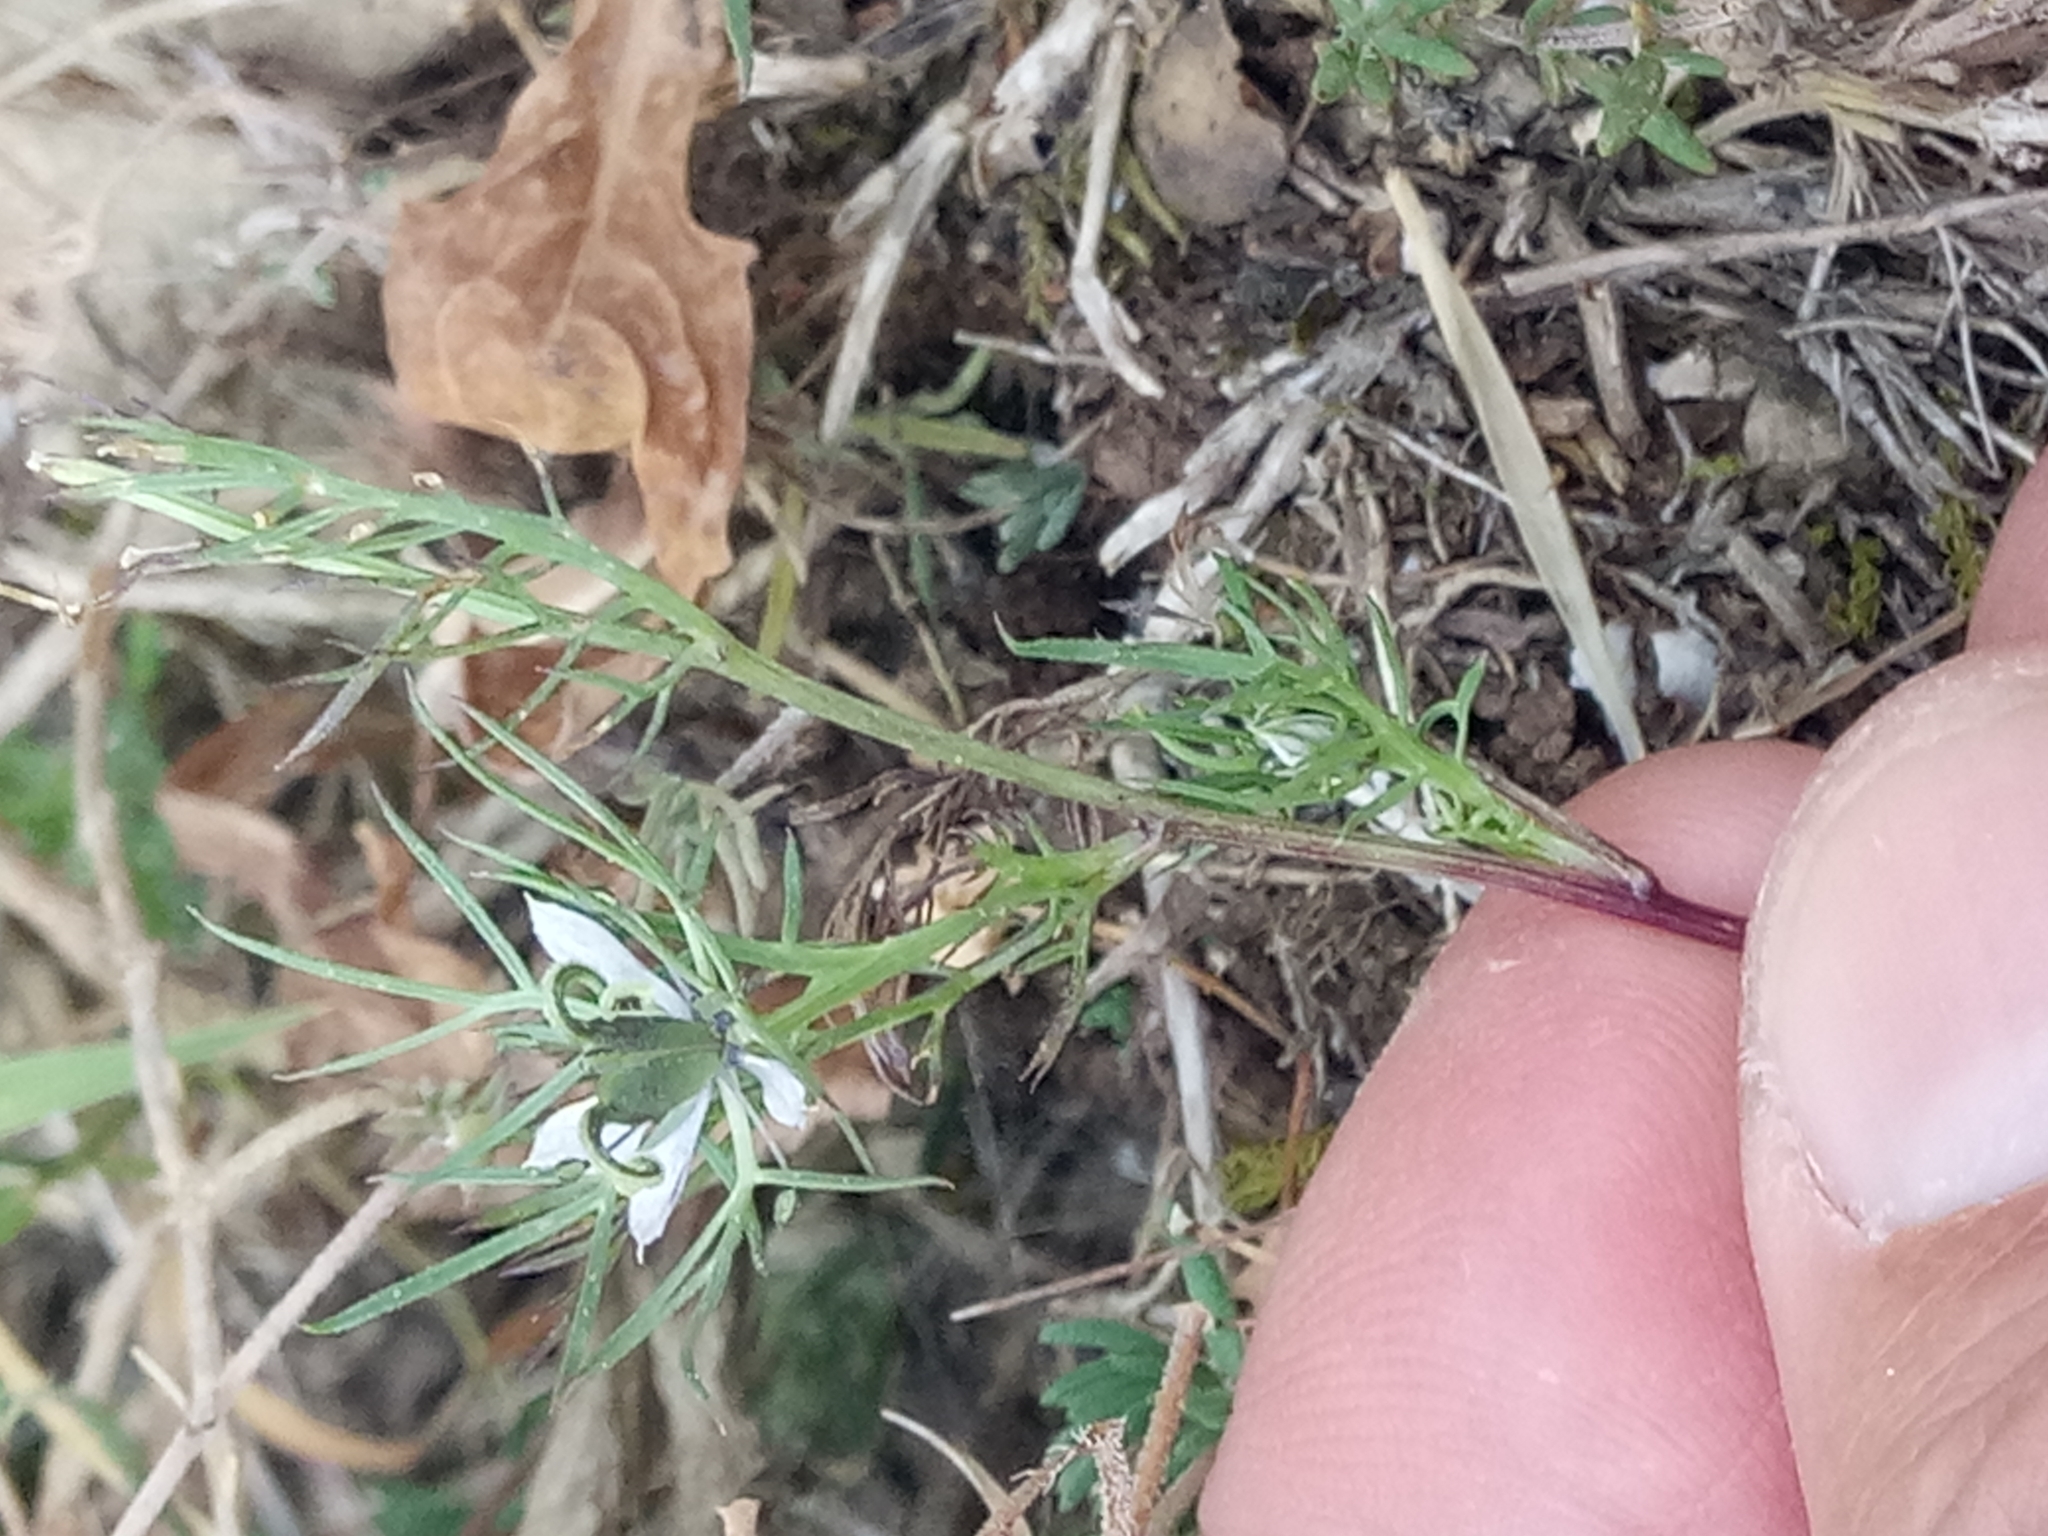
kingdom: Plantae
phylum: Tracheophyta
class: Magnoliopsida
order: Ranunculales
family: Ranunculaceae
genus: Nigella
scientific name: Nigella damascena
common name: Love-in-a-mist
